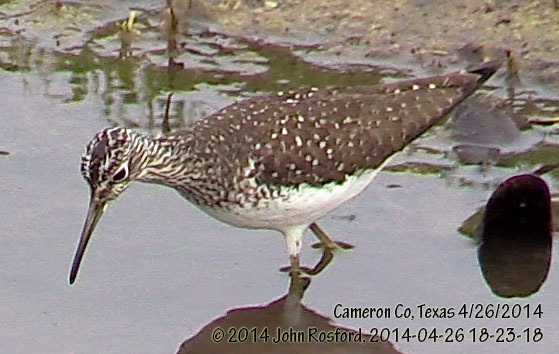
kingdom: Animalia
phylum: Chordata
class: Aves
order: Charadriiformes
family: Scolopacidae
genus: Tringa
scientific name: Tringa solitaria
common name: Solitary sandpiper
